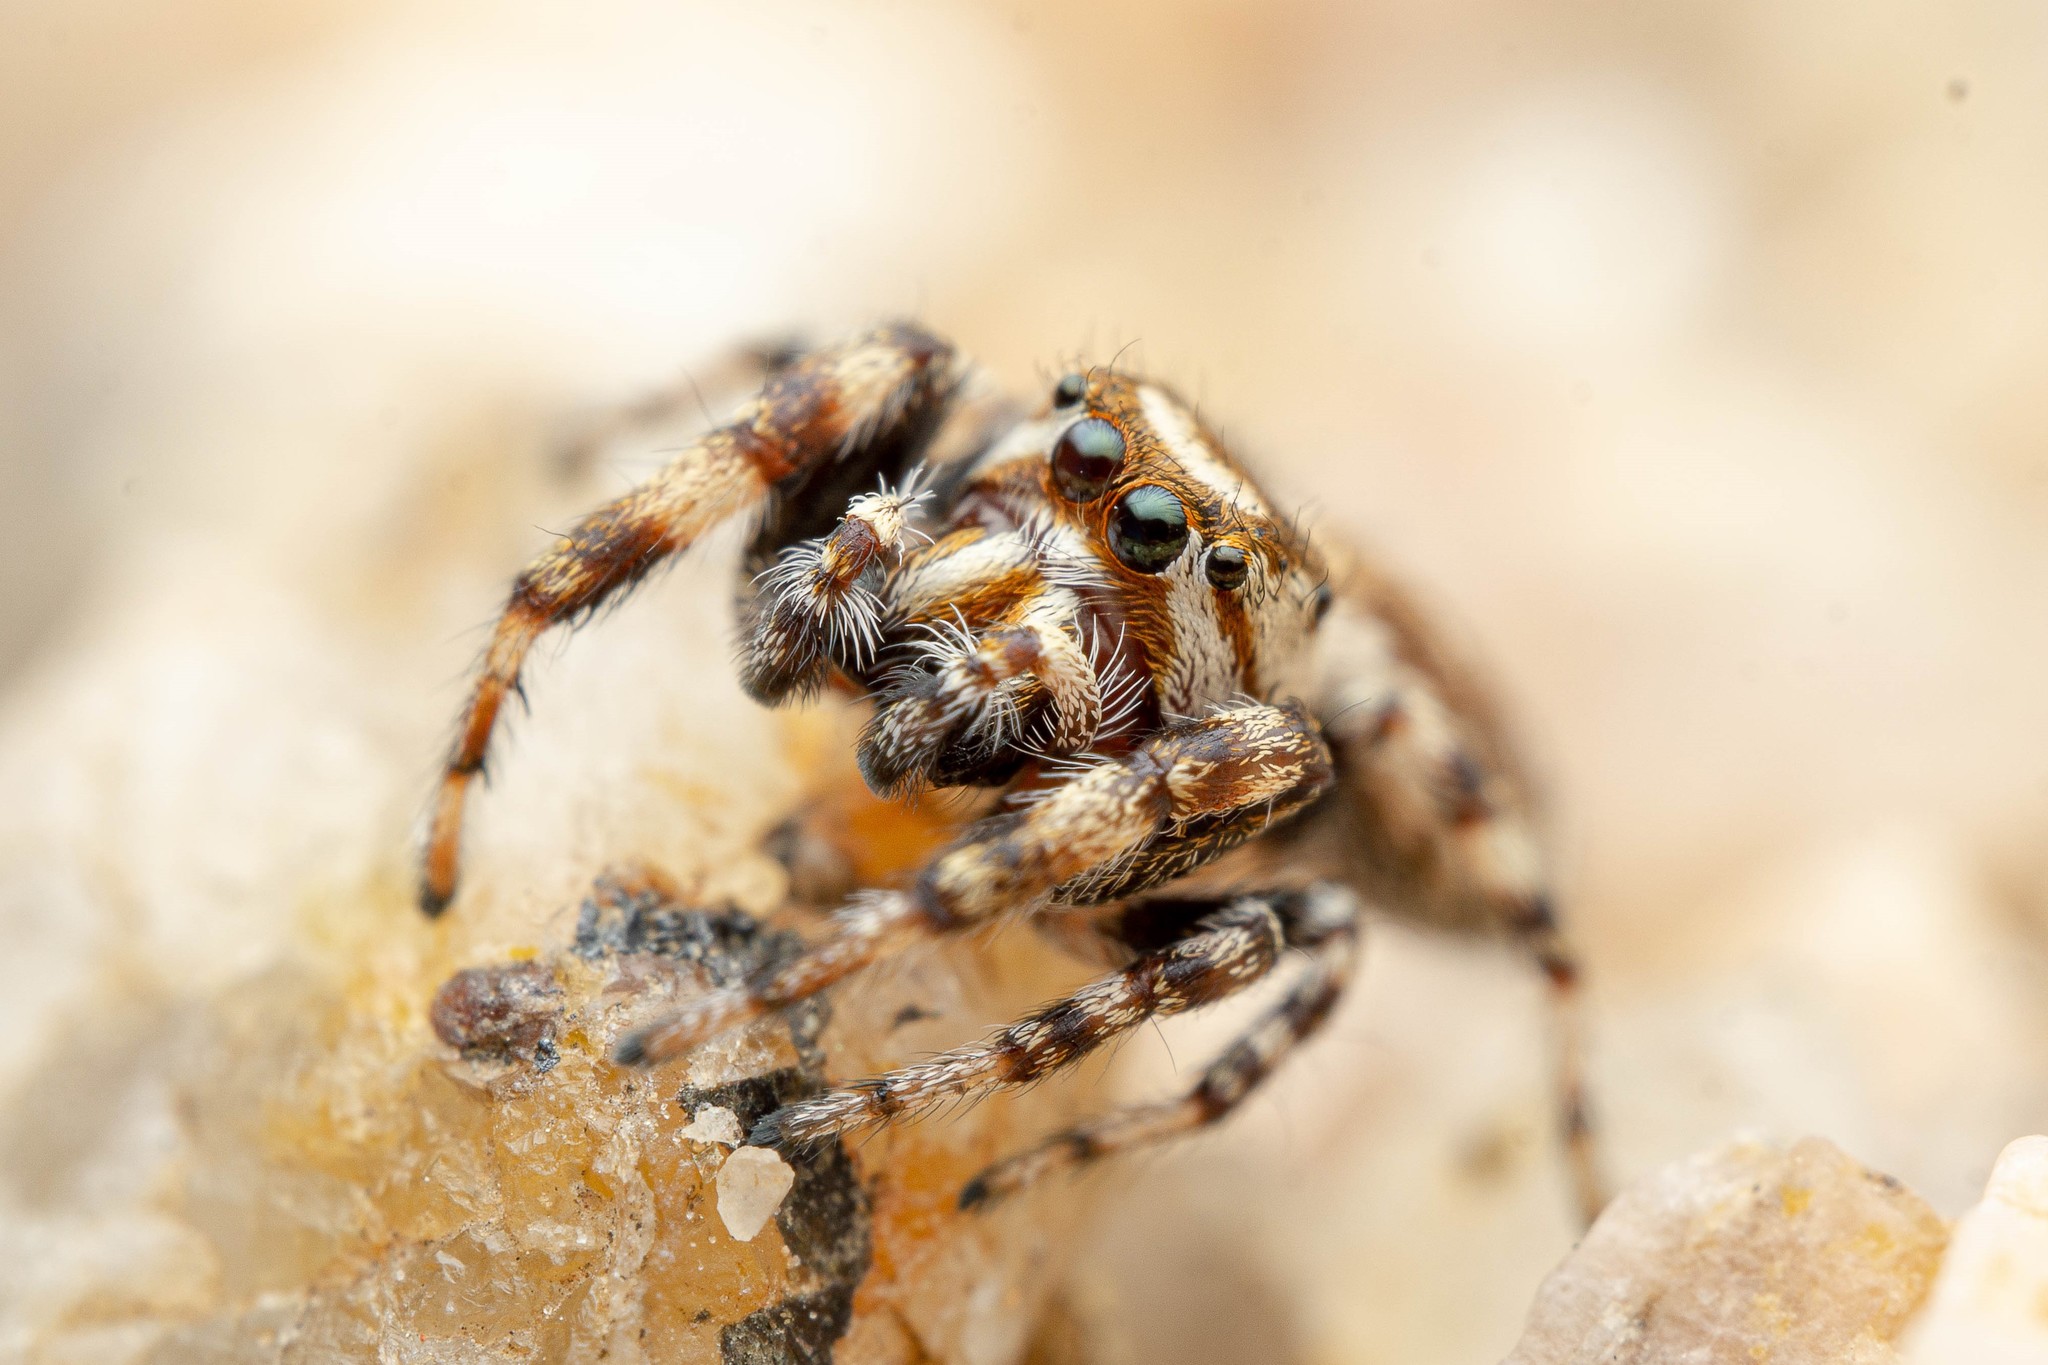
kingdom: Animalia
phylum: Arthropoda
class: Arachnida
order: Araneae
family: Salticidae
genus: Metaphidippus
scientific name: Metaphidippus chera
